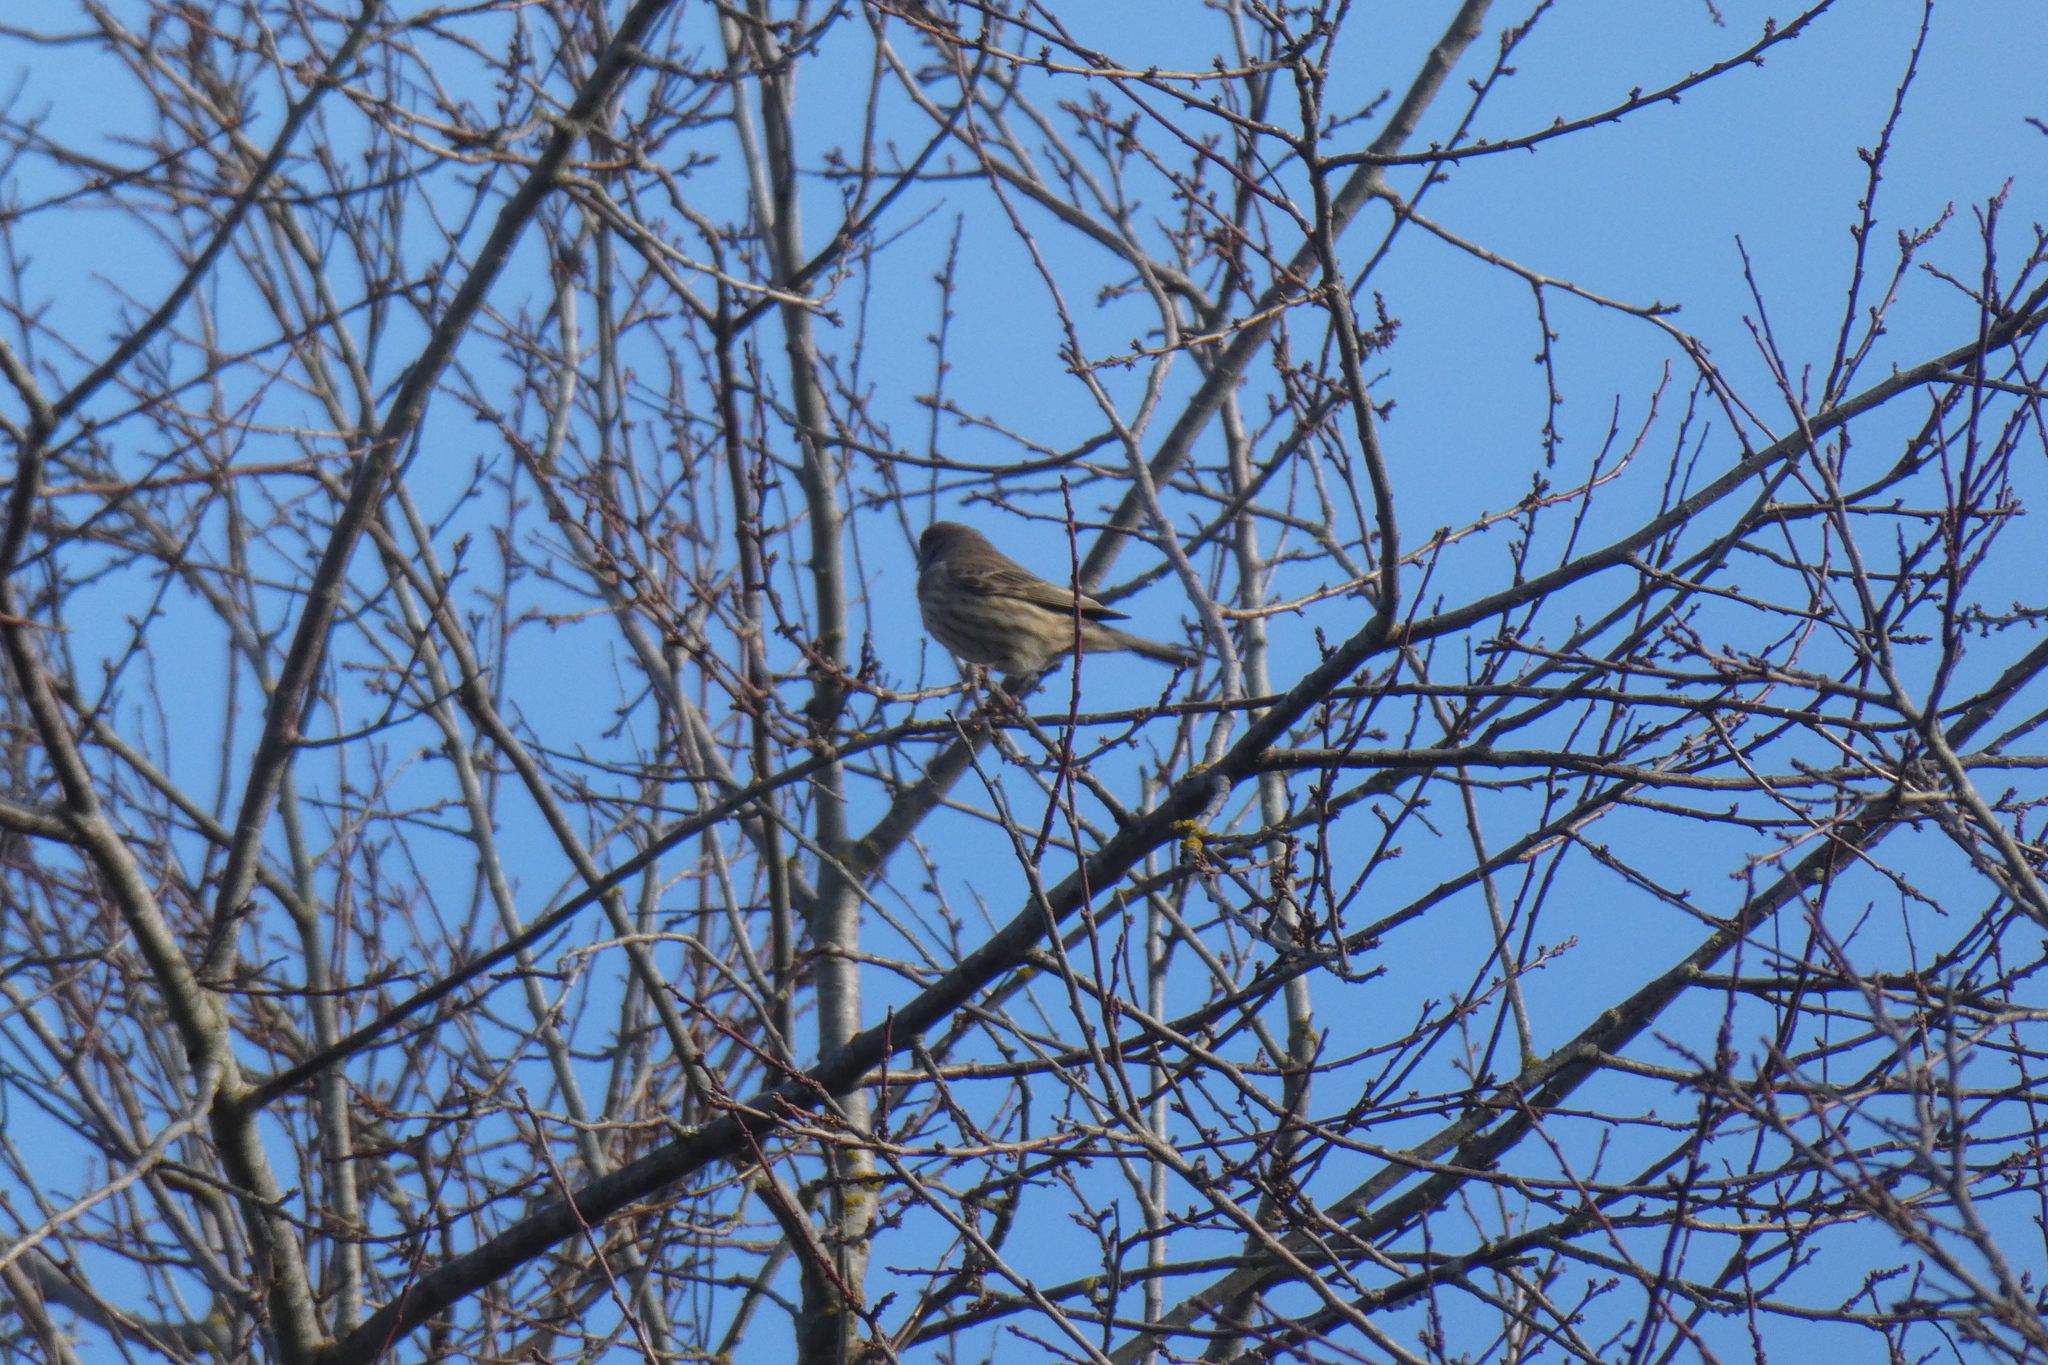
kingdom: Animalia
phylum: Chordata
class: Aves
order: Passeriformes
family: Fringillidae
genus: Haemorhous
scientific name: Haemorhous mexicanus
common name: House finch
